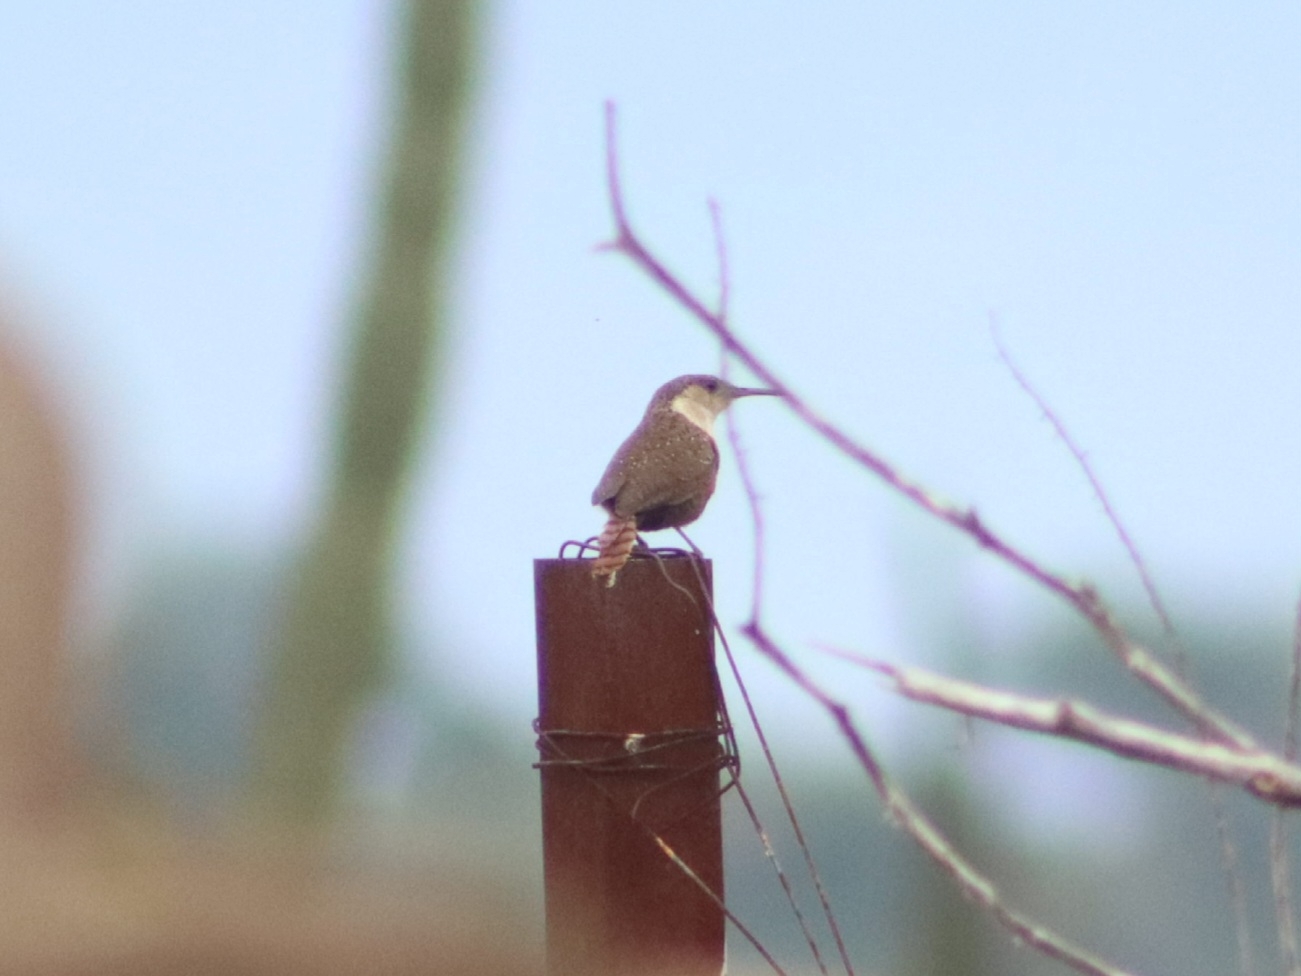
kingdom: Animalia
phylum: Chordata
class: Aves
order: Passeriformes
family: Troglodytidae
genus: Catherpes
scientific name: Catherpes mexicanus
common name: Canyon wren
